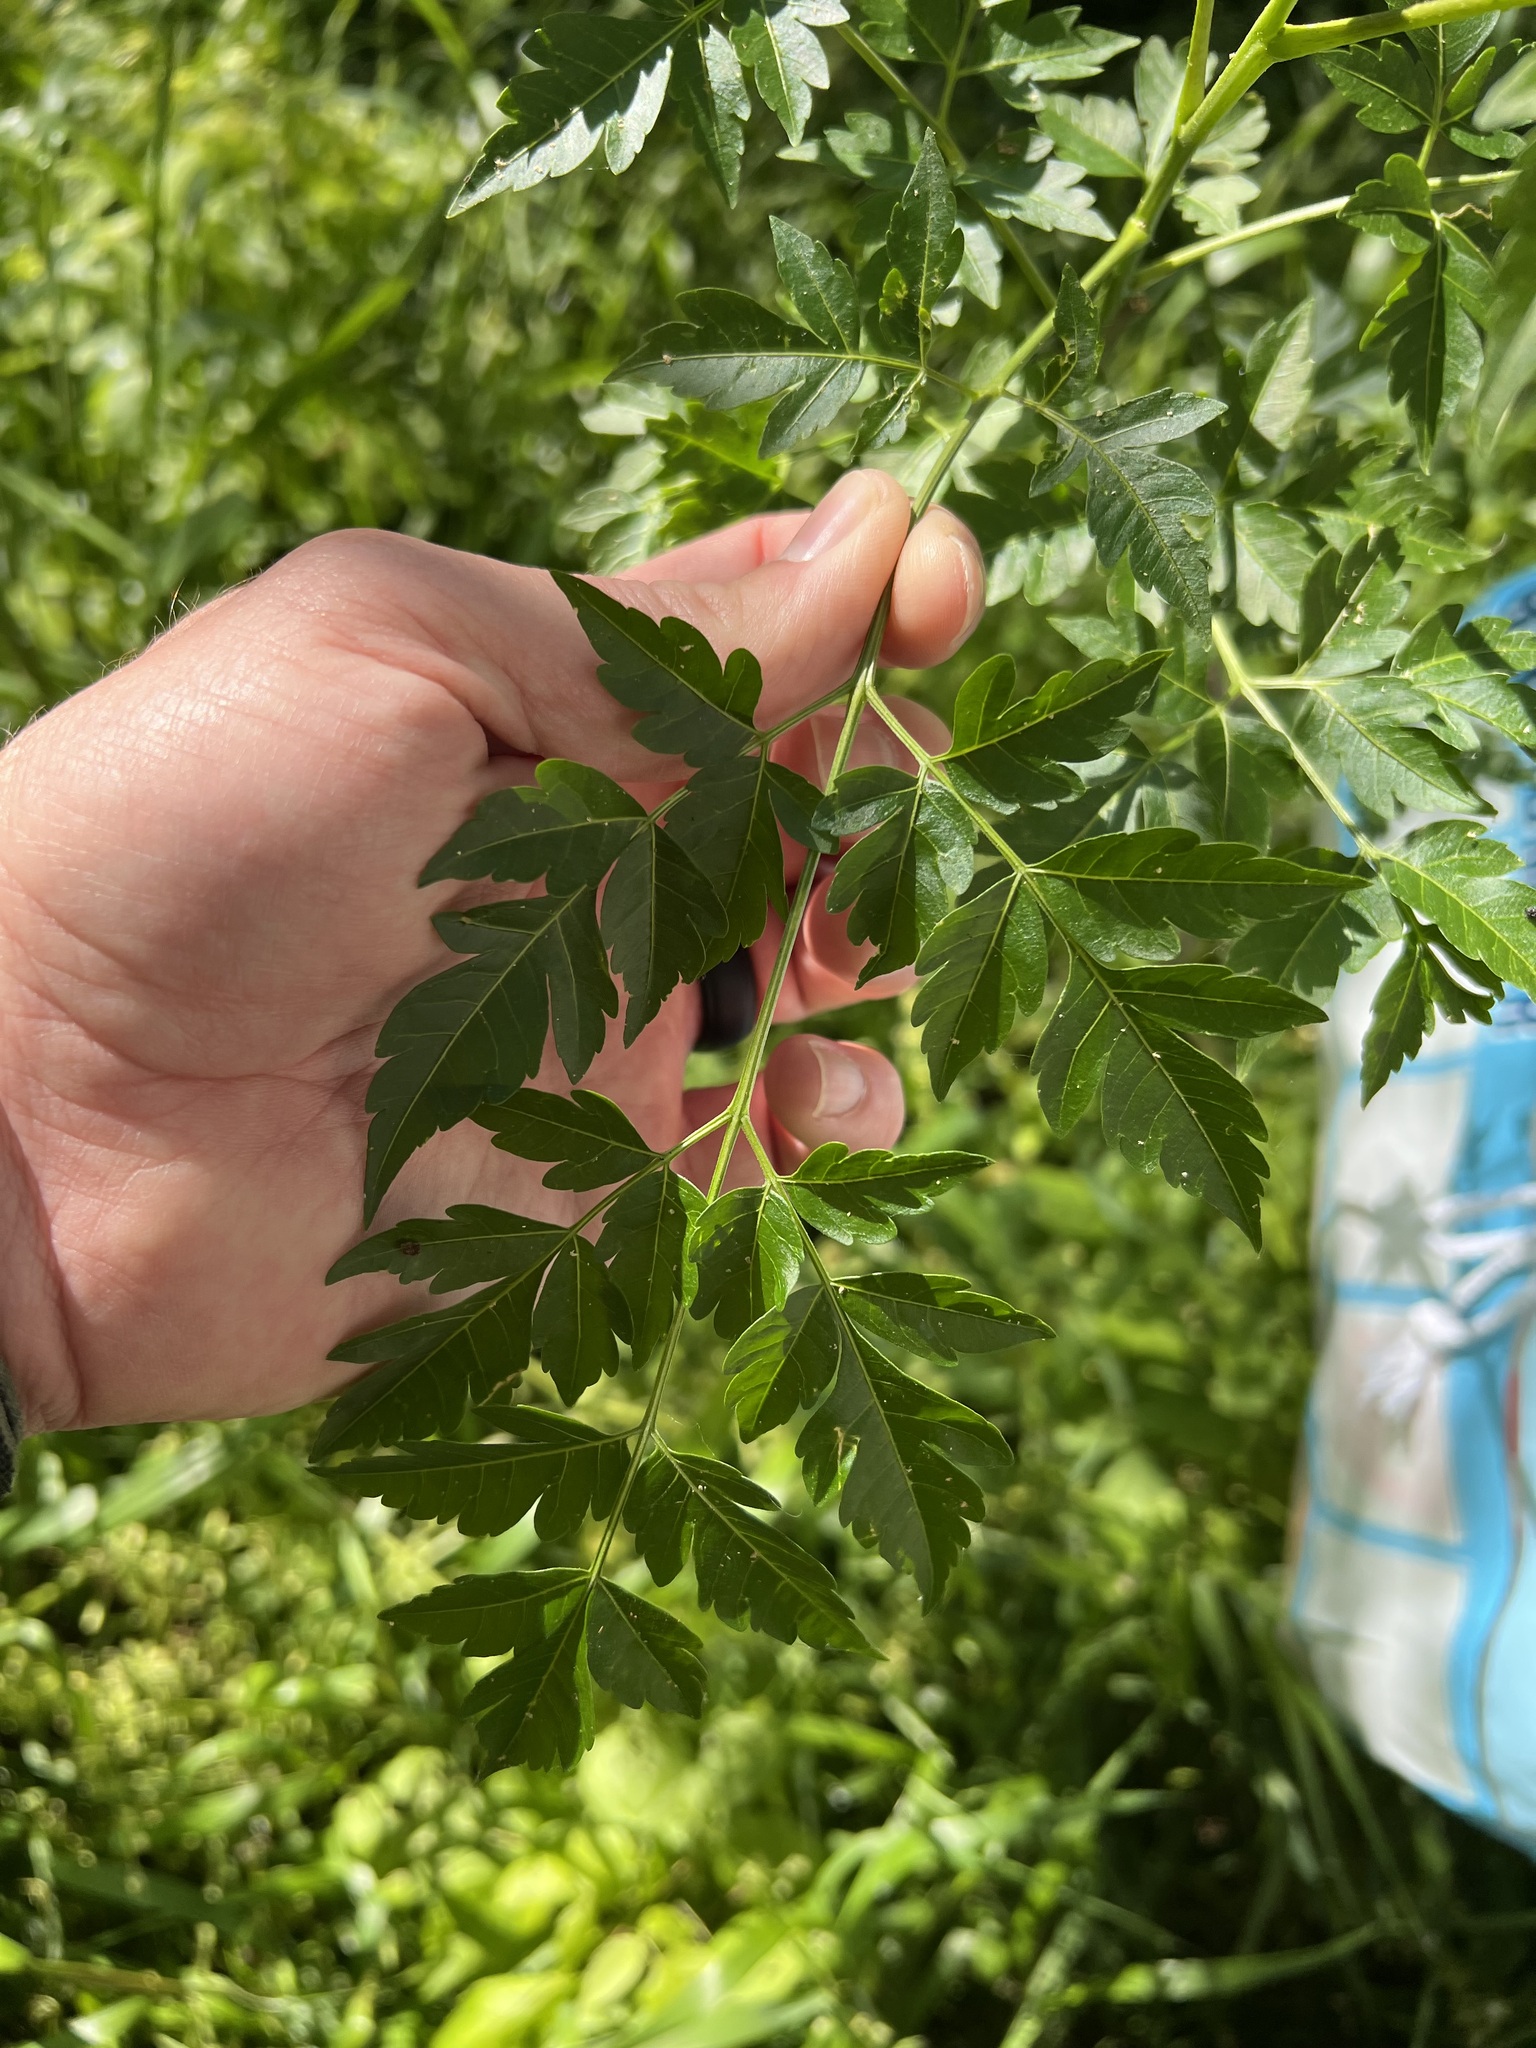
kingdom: Plantae
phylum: Tracheophyta
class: Magnoliopsida
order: Sapindales
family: Meliaceae
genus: Melia
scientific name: Melia azedarach
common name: Chinaberrytree
